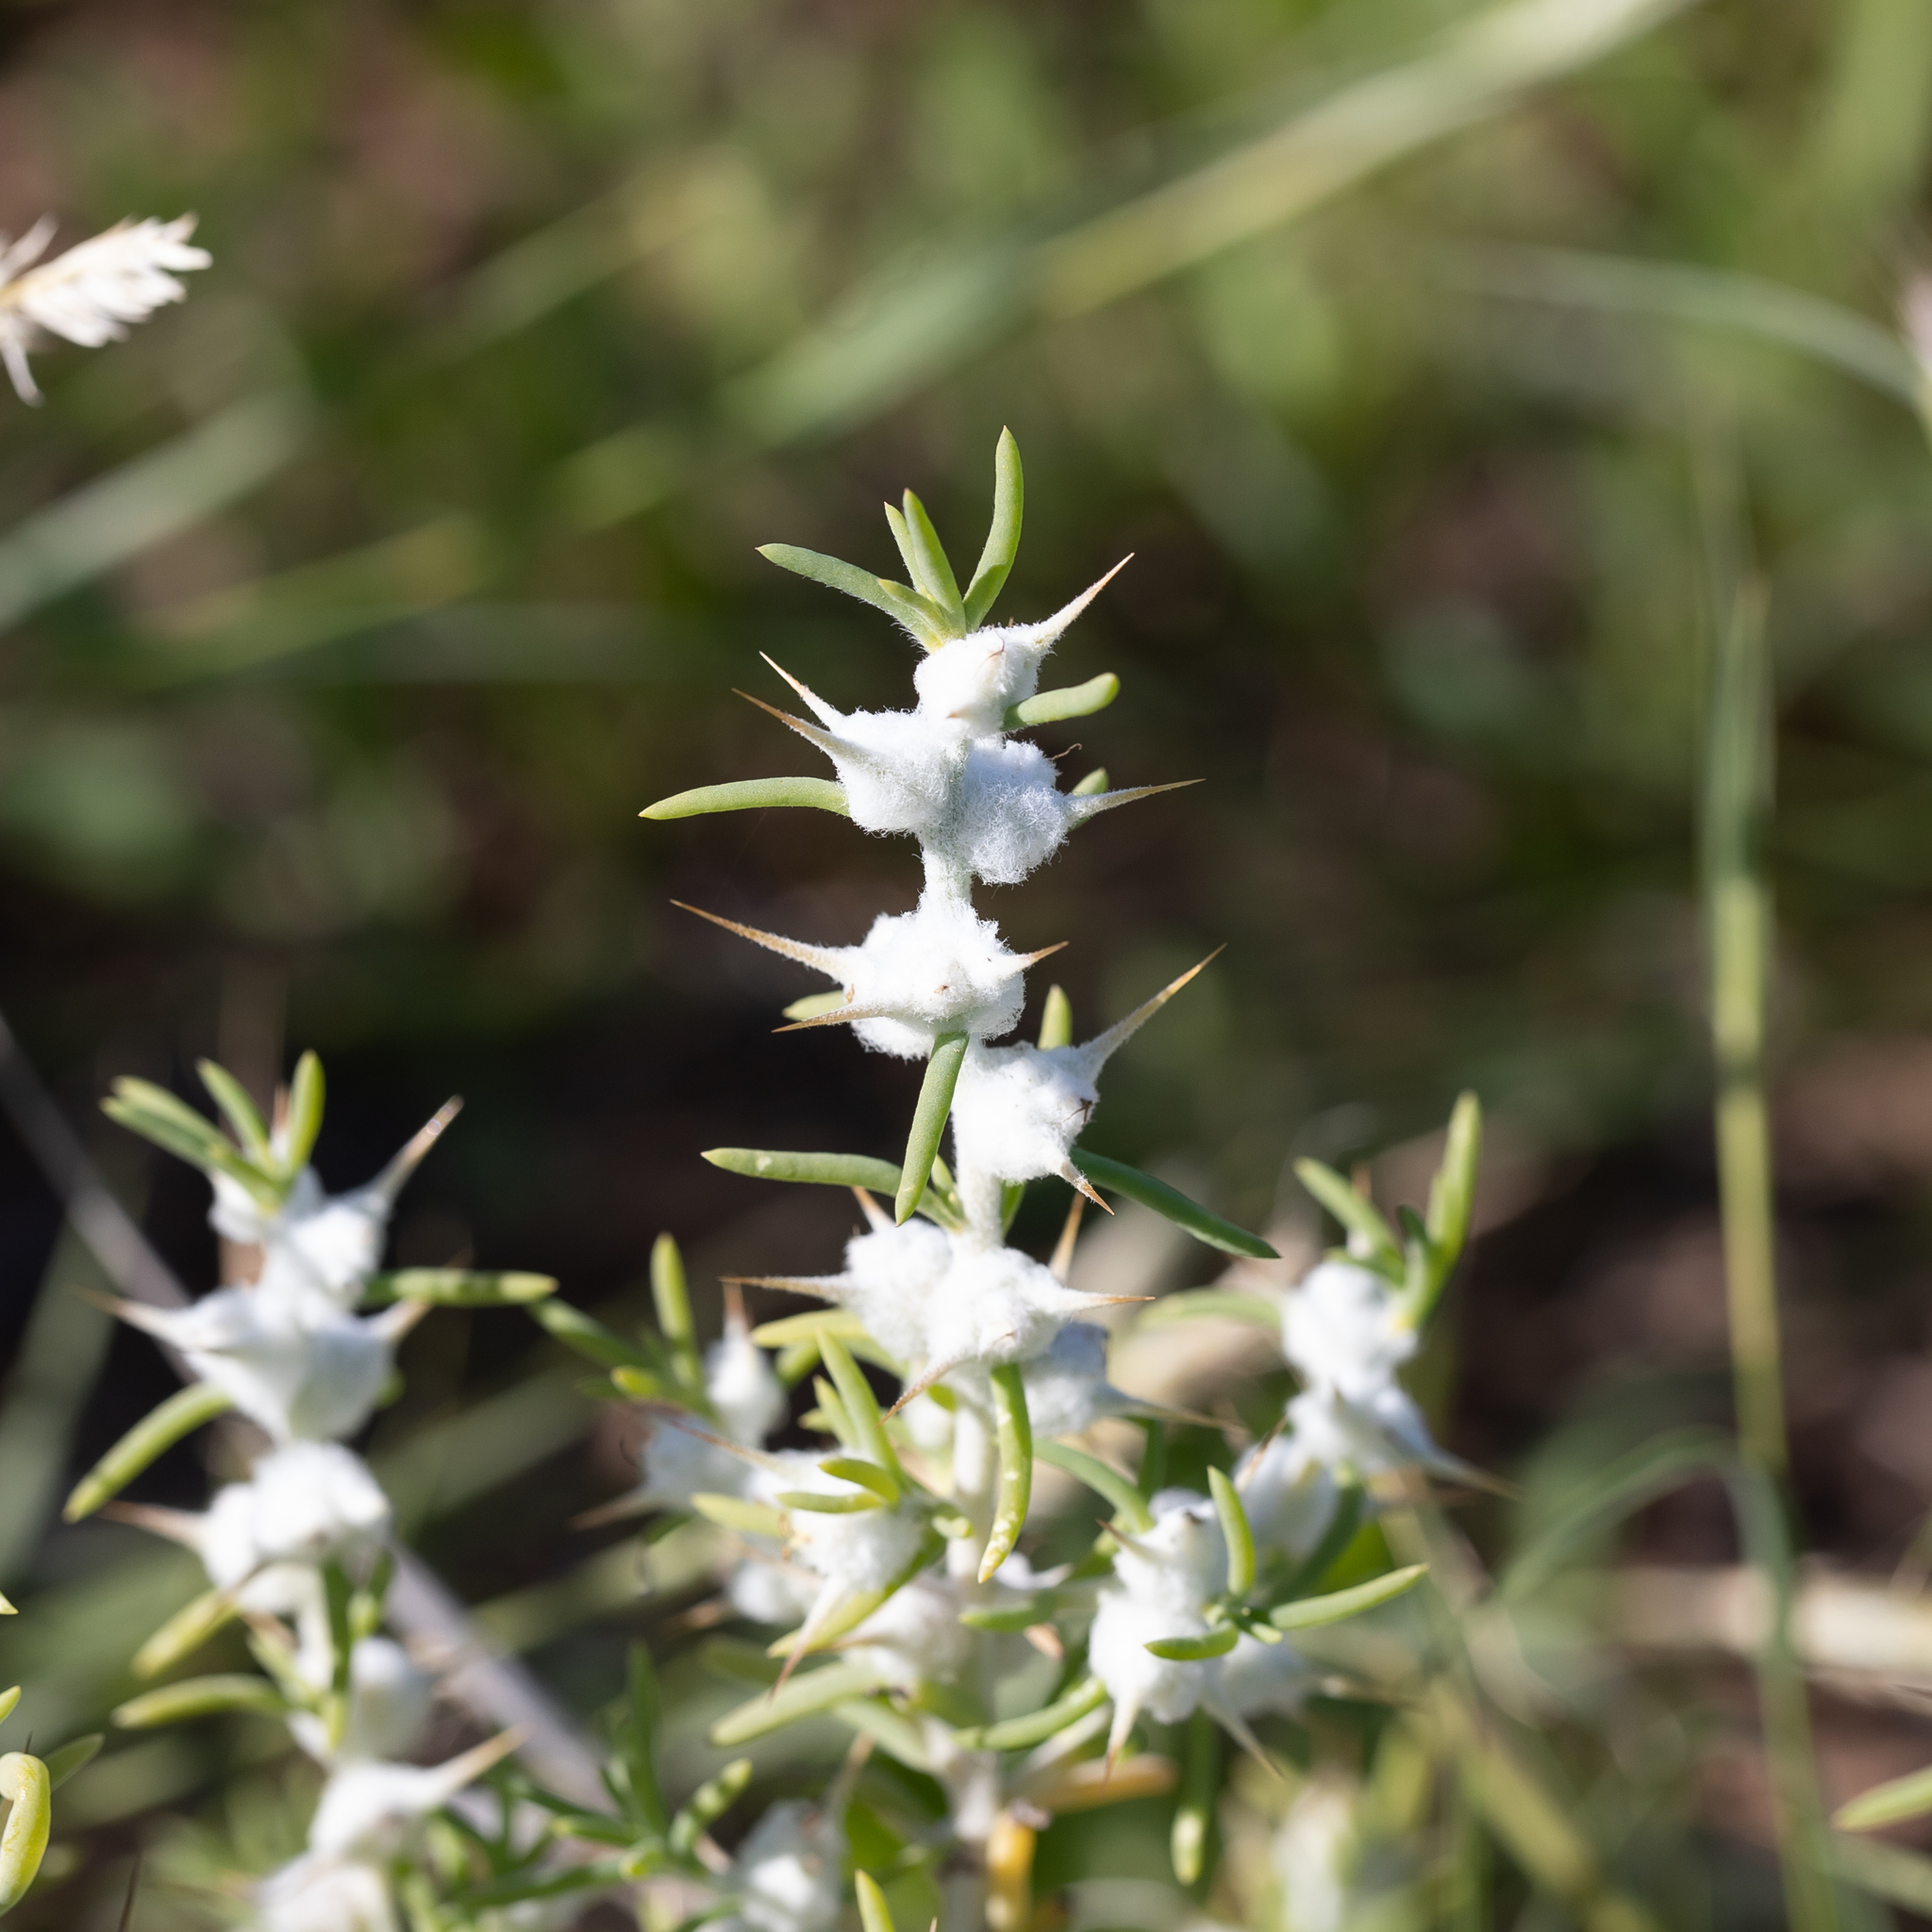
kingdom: Plantae
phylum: Tracheophyta
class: Magnoliopsida
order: Caryophyllales
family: Amaranthaceae
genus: Sclerolaena
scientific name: Sclerolaena bicornis
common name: Goatheadbur
